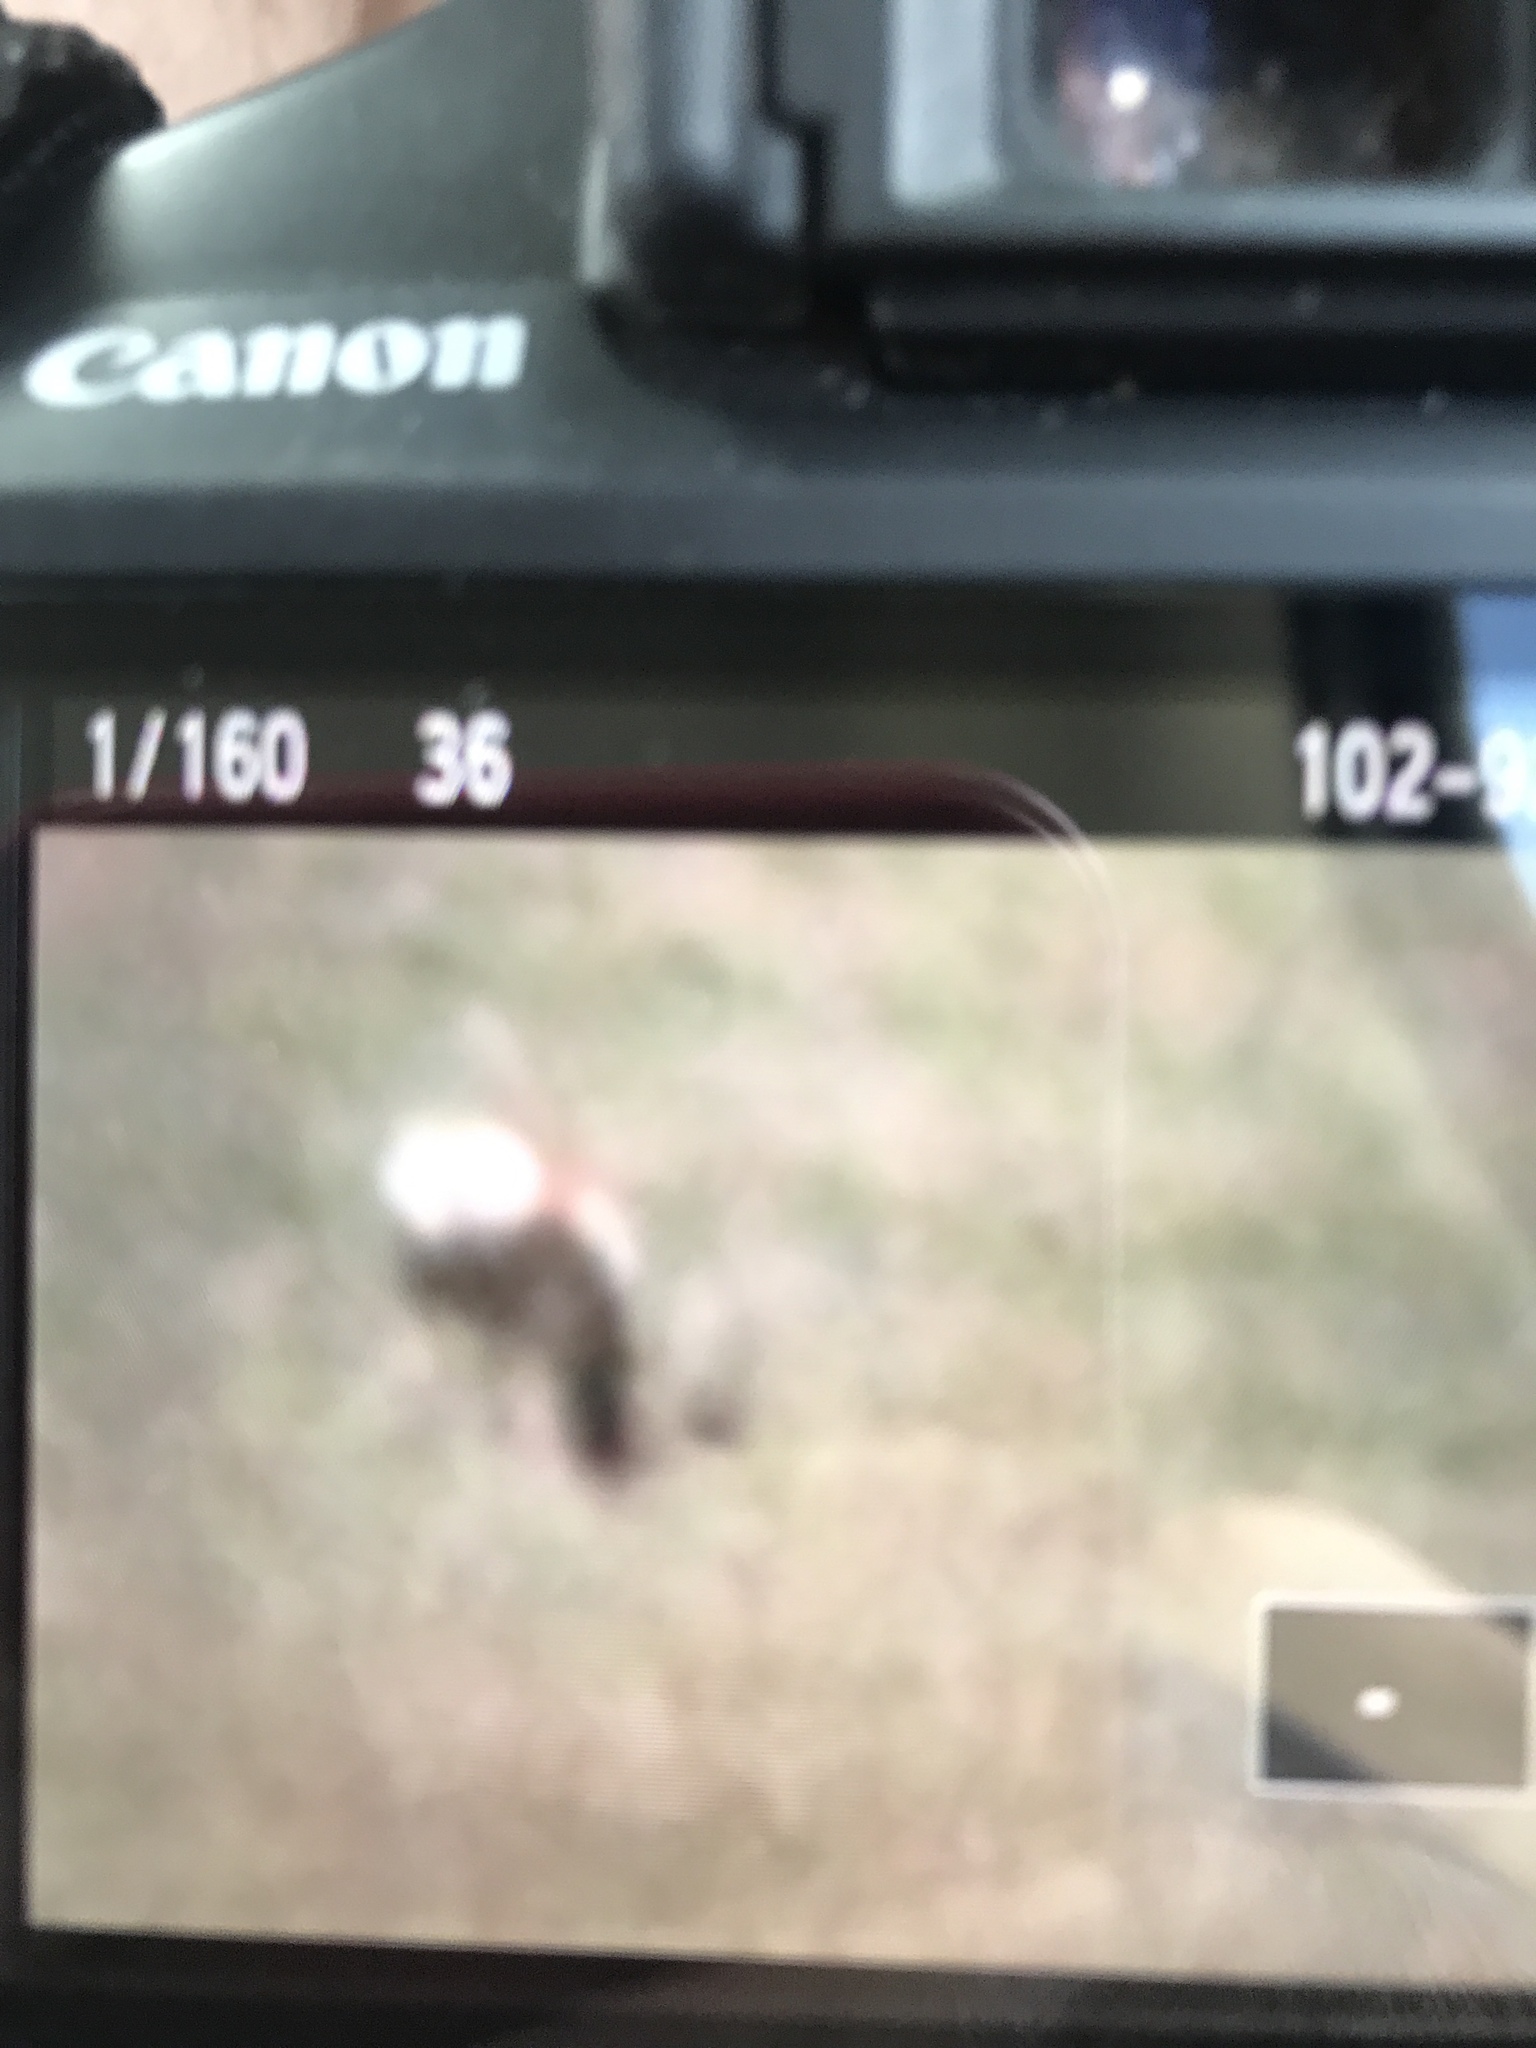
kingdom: Animalia
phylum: Chordata
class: Mammalia
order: Artiodactyla
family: Antilocapridae
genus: Antilocapra
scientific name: Antilocapra americana
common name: Pronghorn
